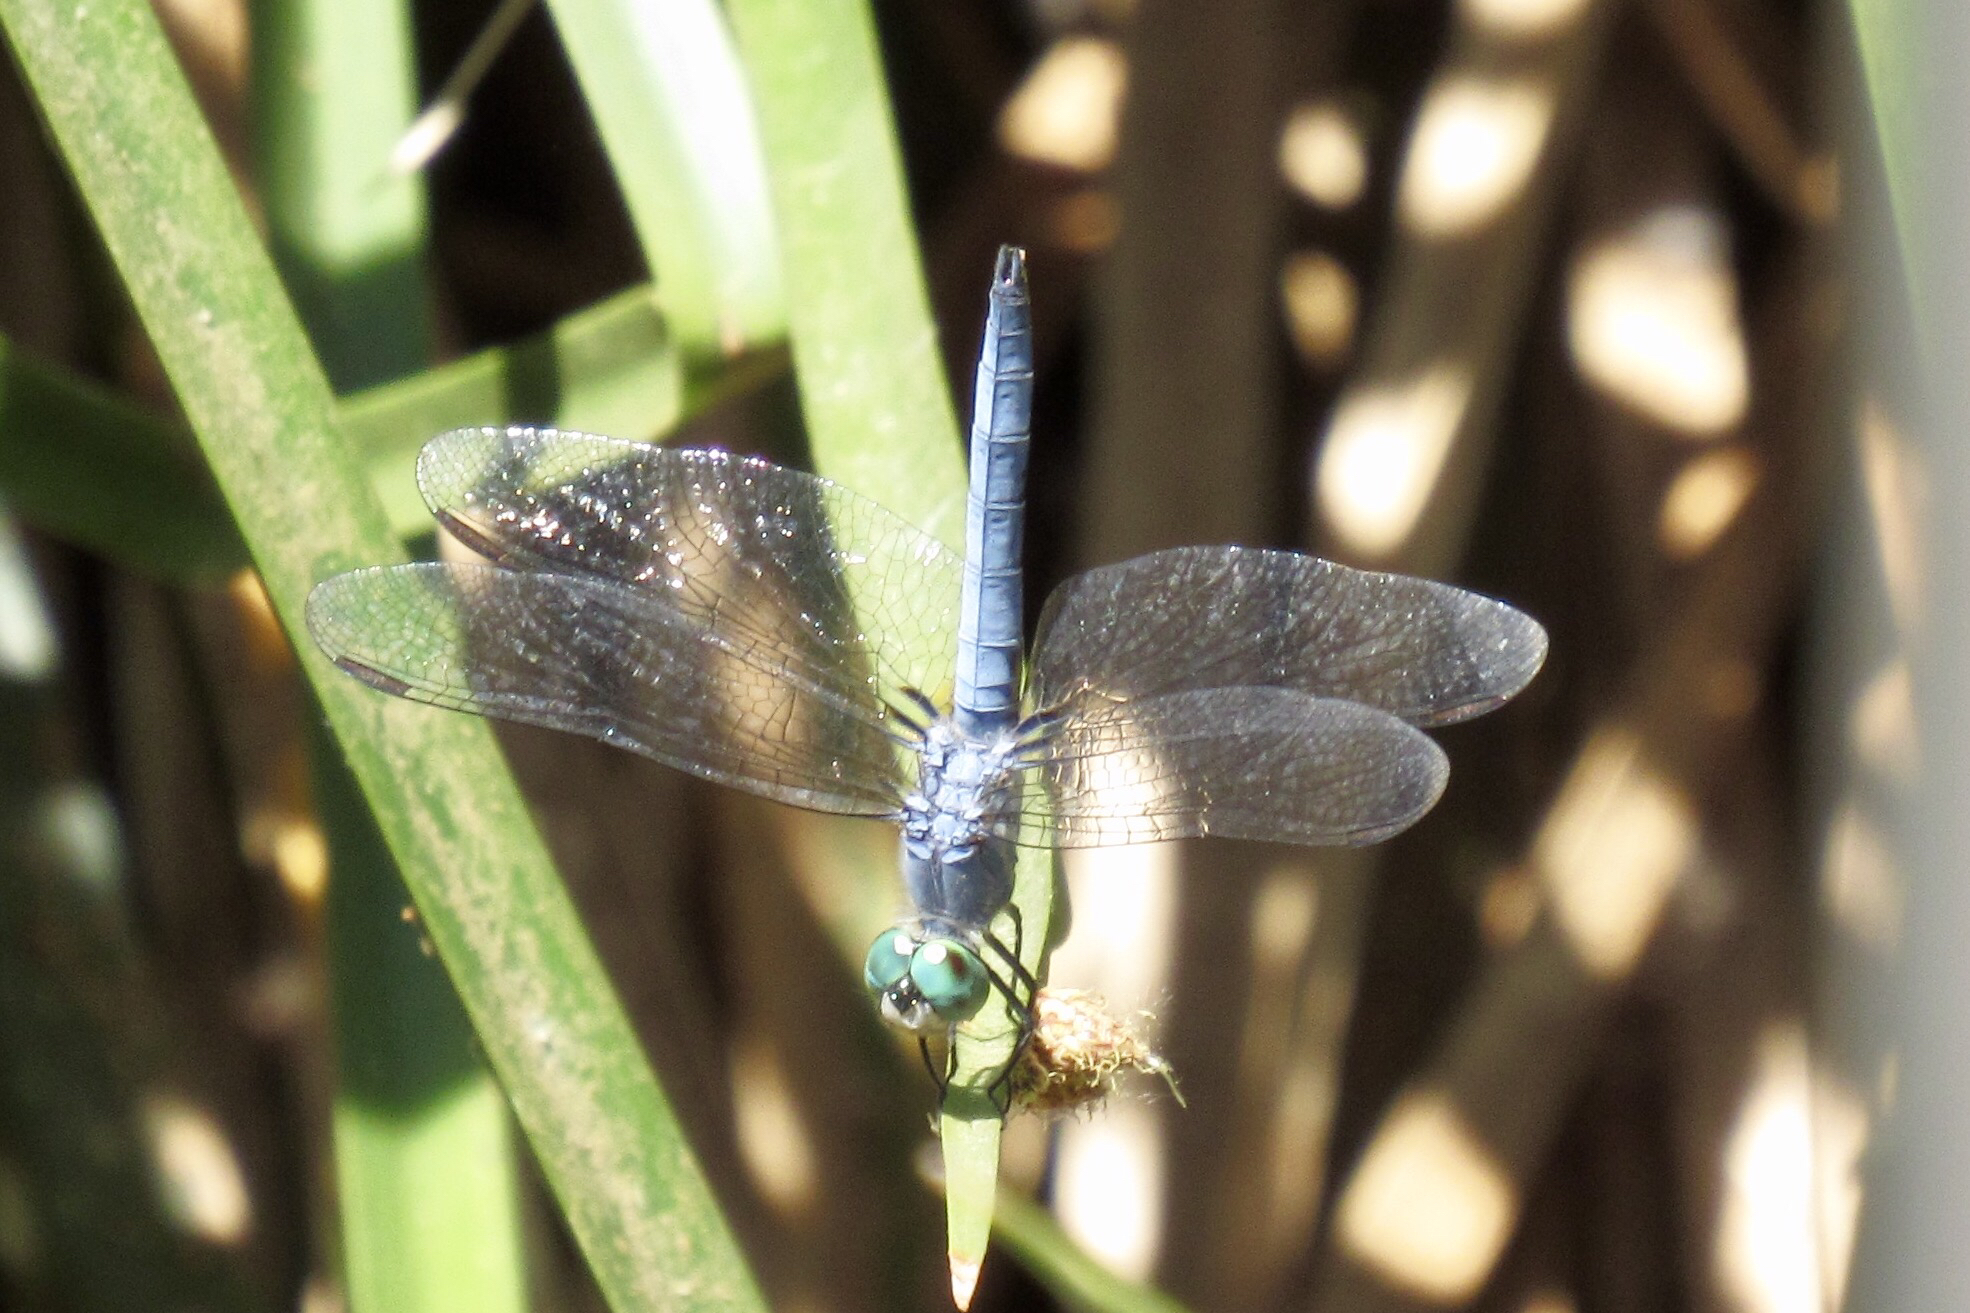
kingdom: Animalia
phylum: Arthropoda
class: Insecta
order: Odonata
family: Libellulidae
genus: Pachydiplax
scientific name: Pachydiplax longipennis
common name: Blue dasher
